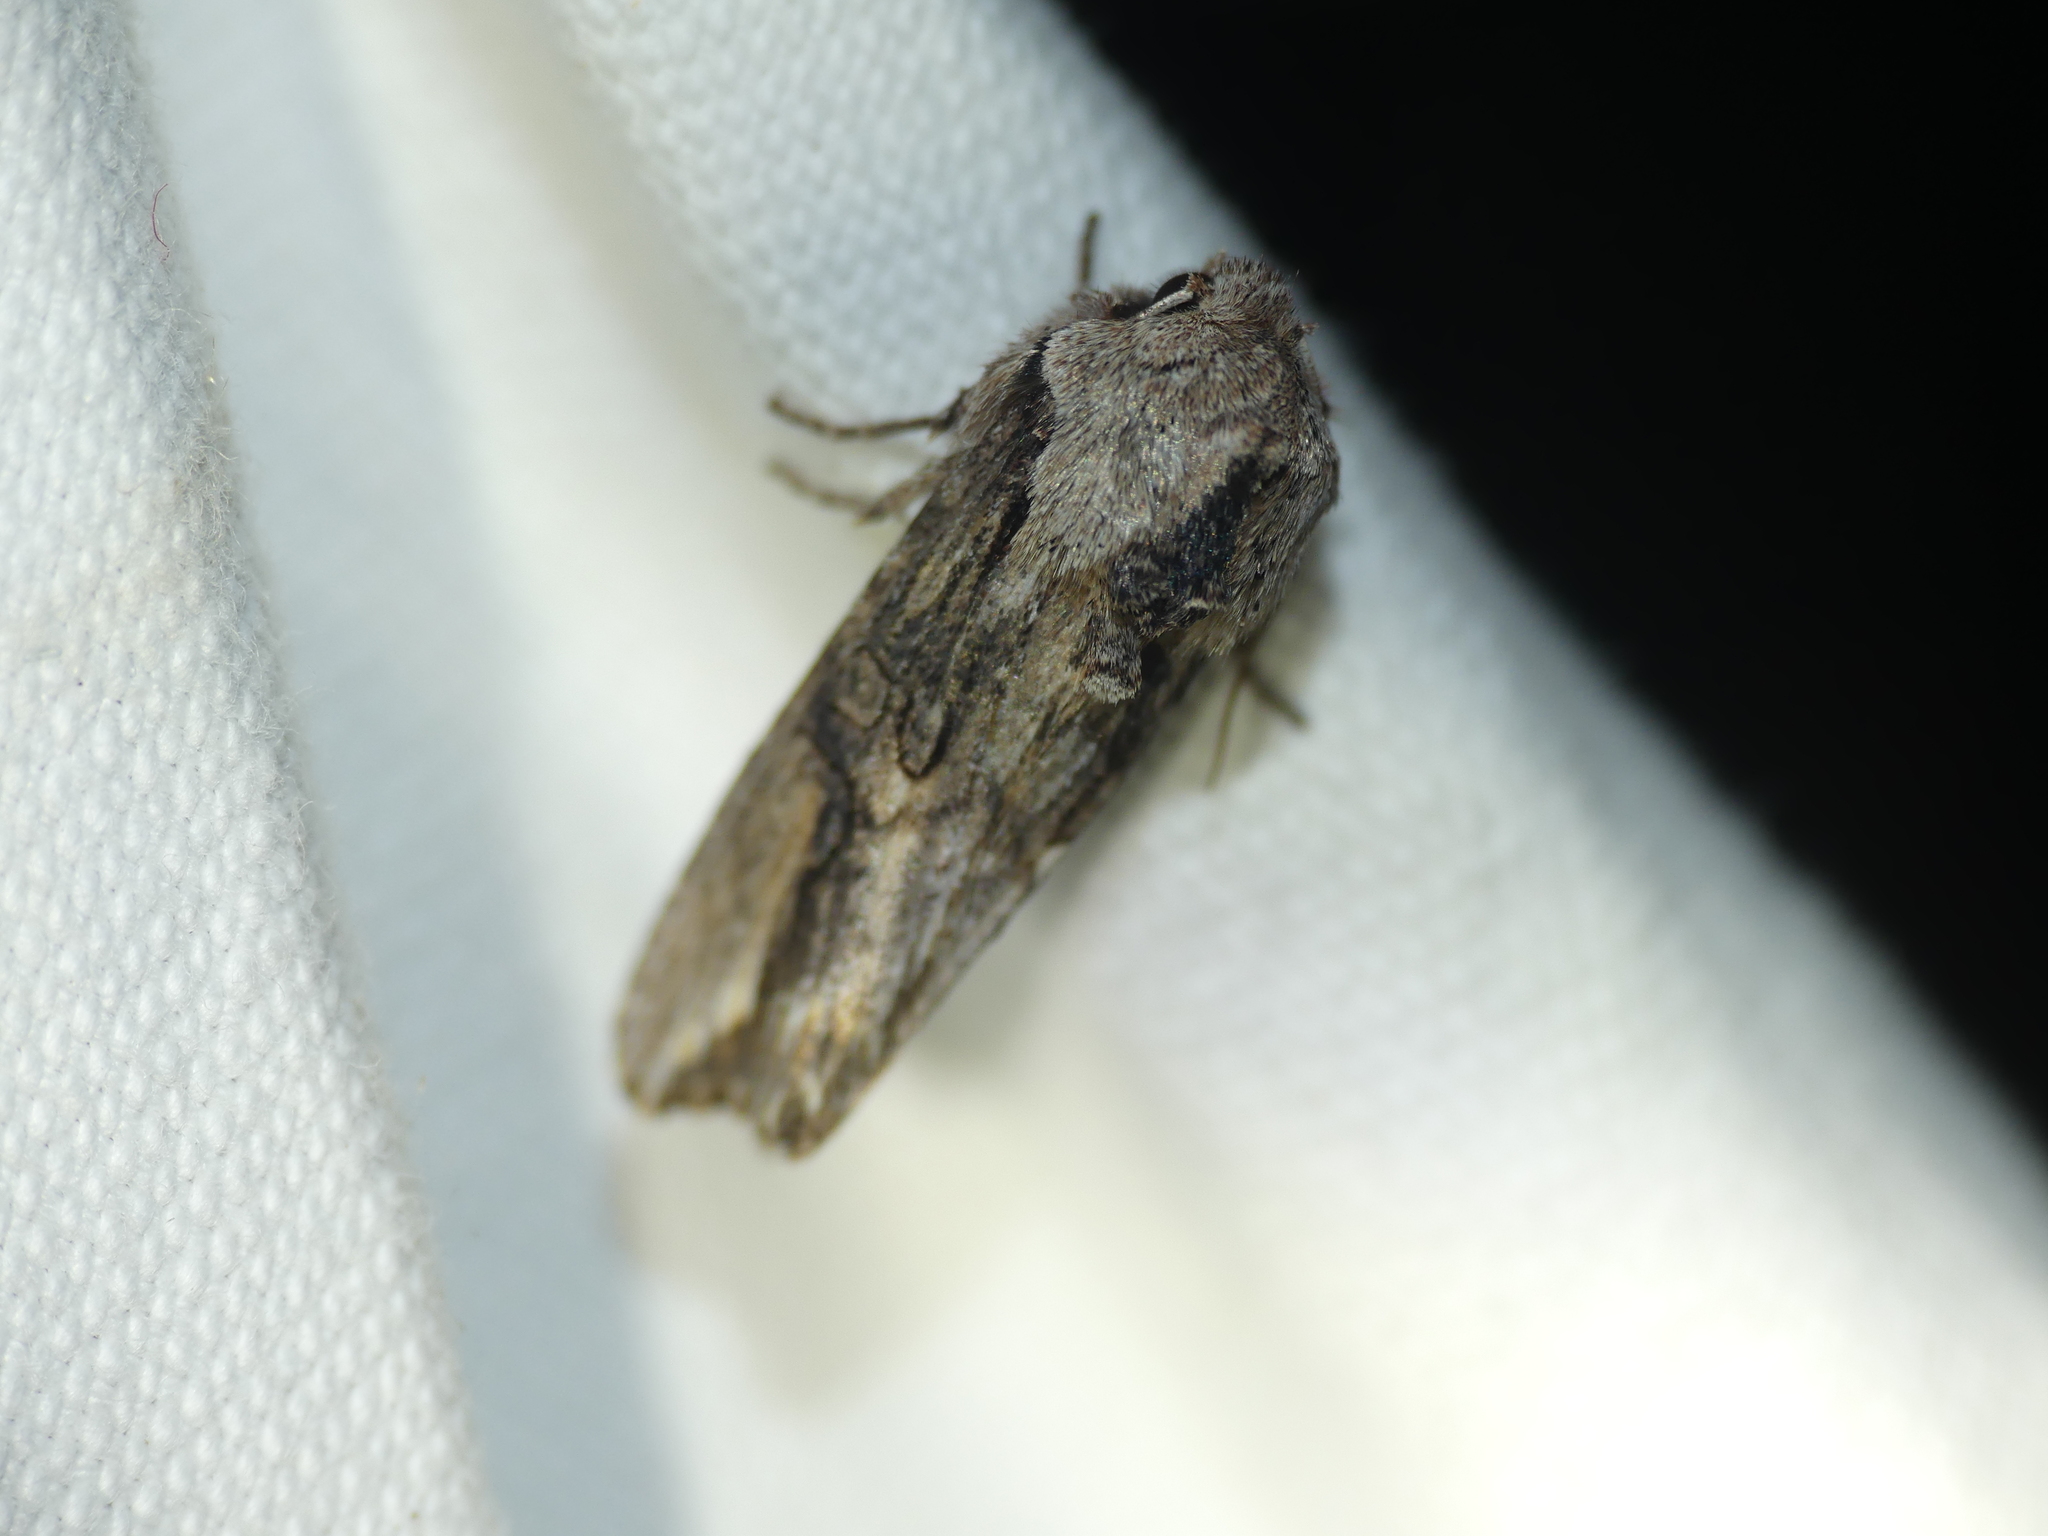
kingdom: Animalia
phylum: Arthropoda
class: Insecta
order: Lepidoptera
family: Noctuidae
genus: Egira
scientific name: Egira conspicillaris
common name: Silver cloud
